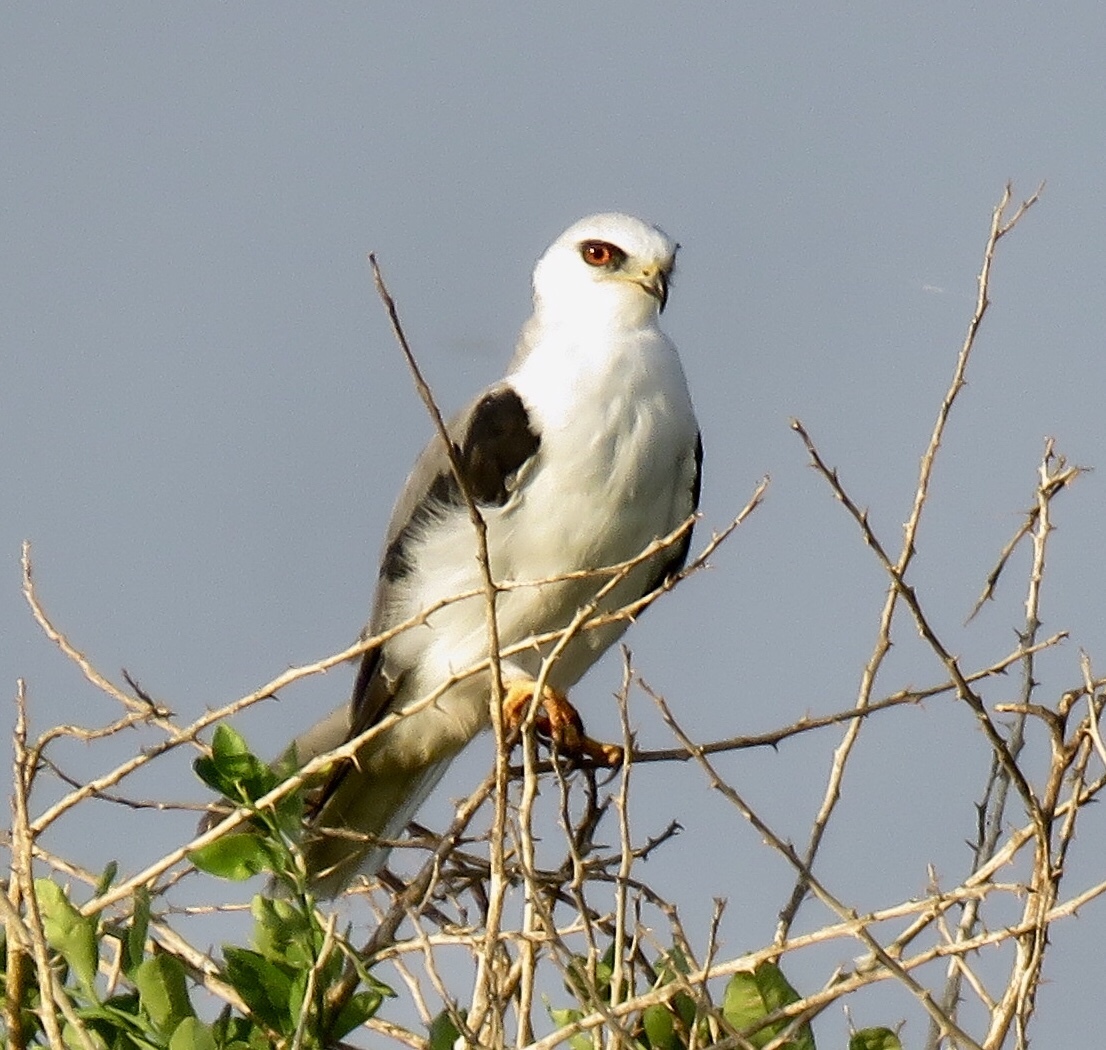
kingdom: Animalia
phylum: Chordata
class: Aves
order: Accipitriformes
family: Accipitridae
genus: Elanus
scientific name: Elanus leucurus
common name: White-tailed kite
